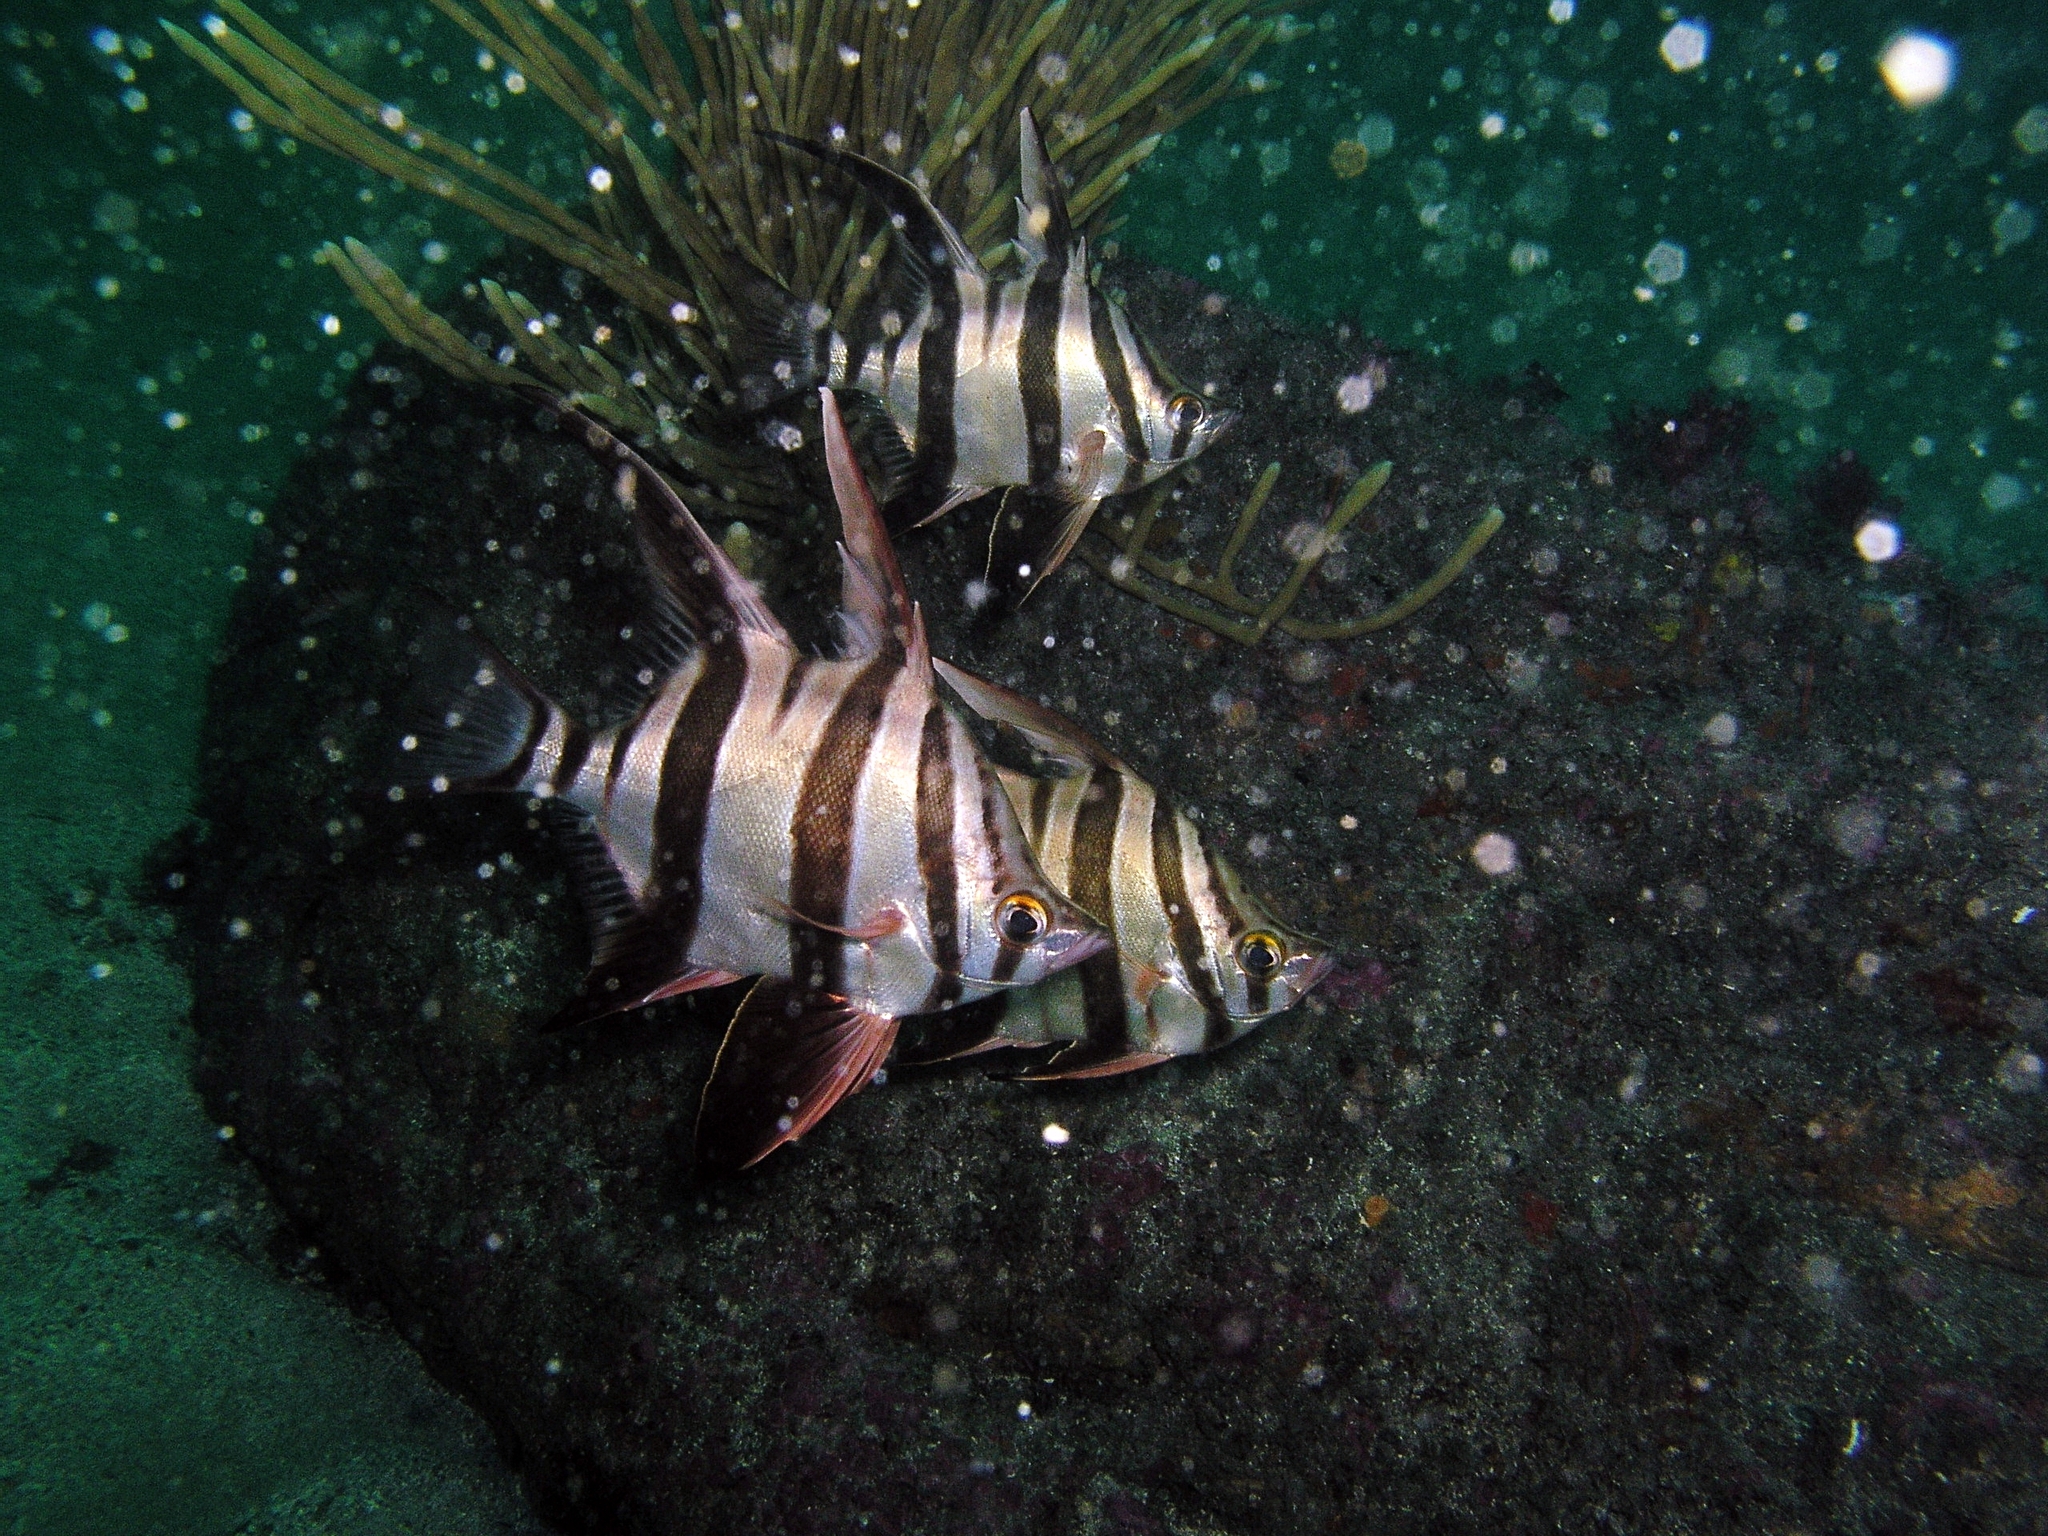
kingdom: Animalia
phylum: Chordata
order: Perciformes
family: Enoplosidae
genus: Enoplosus
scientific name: Enoplosus armatus
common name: Old wife
